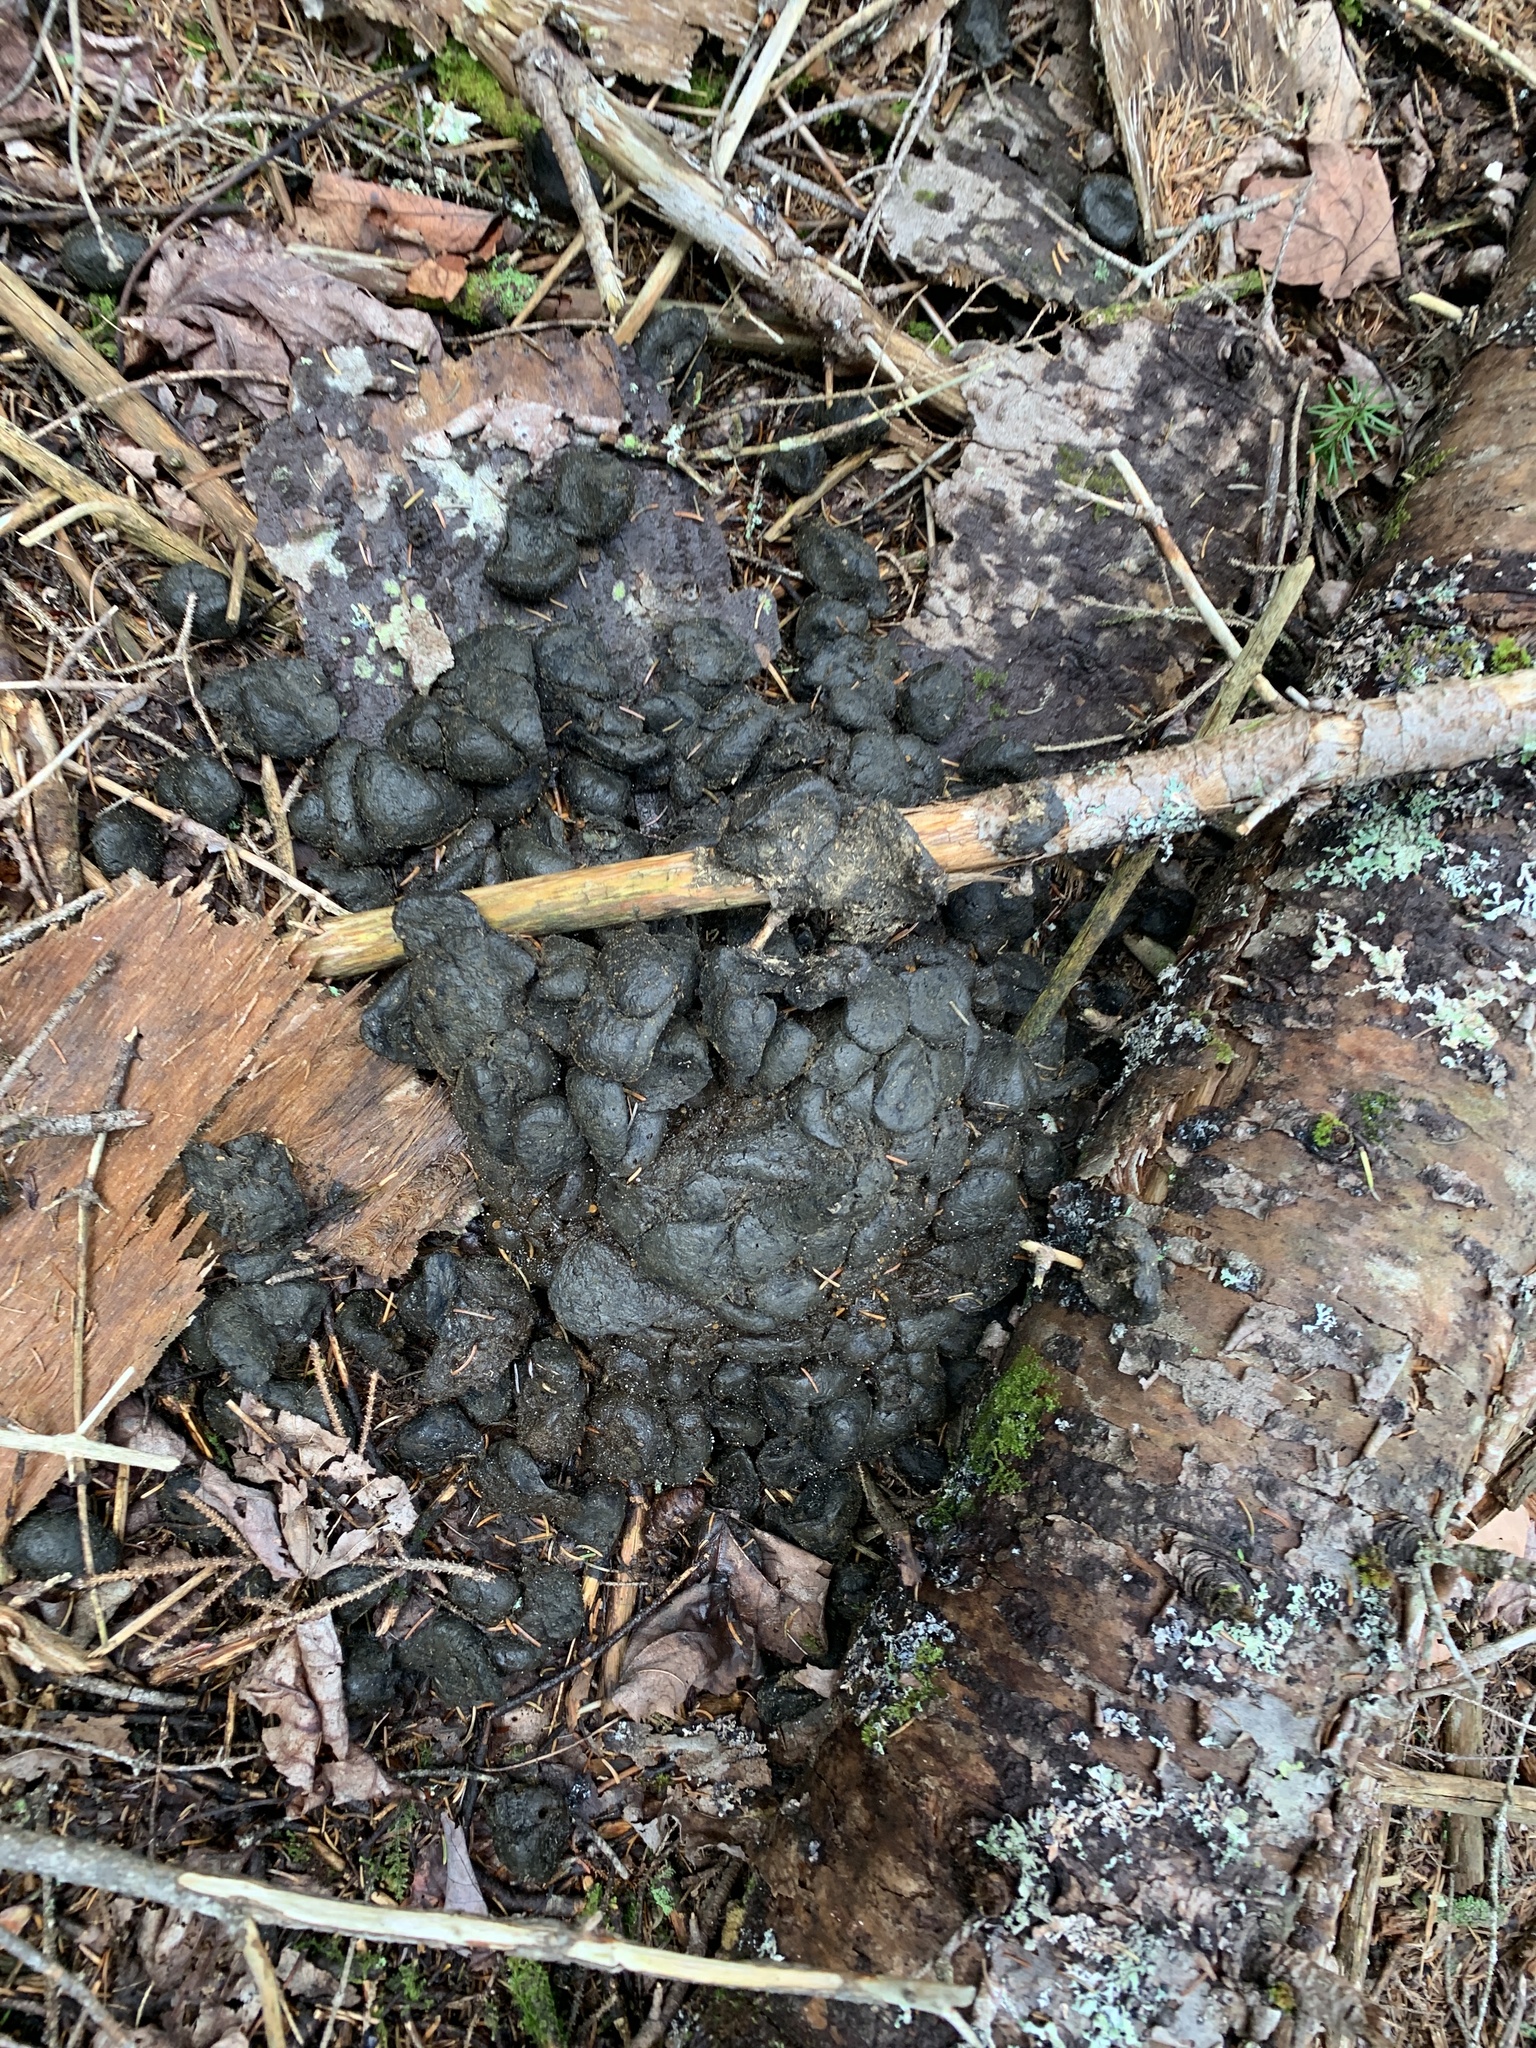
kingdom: Animalia
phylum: Chordata
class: Mammalia
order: Artiodactyla
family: Cervidae
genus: Alces
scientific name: Alces alces
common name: Moose
